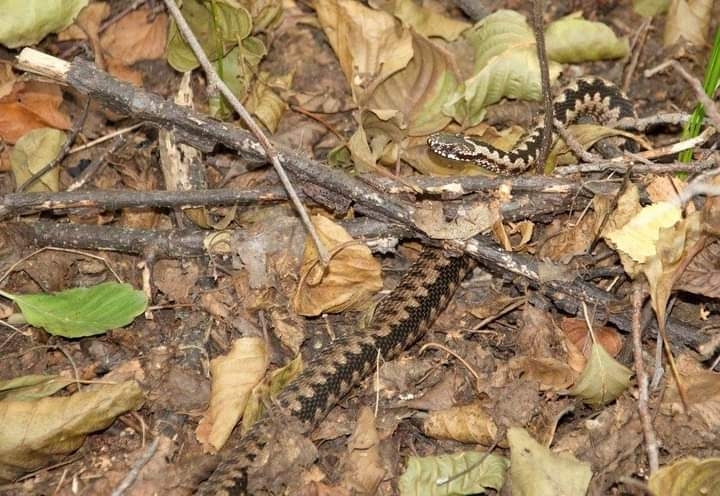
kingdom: Animalia
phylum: Chordata
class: Squamata
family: Viperidae
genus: Vipera
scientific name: Vipera berus
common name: Adder
